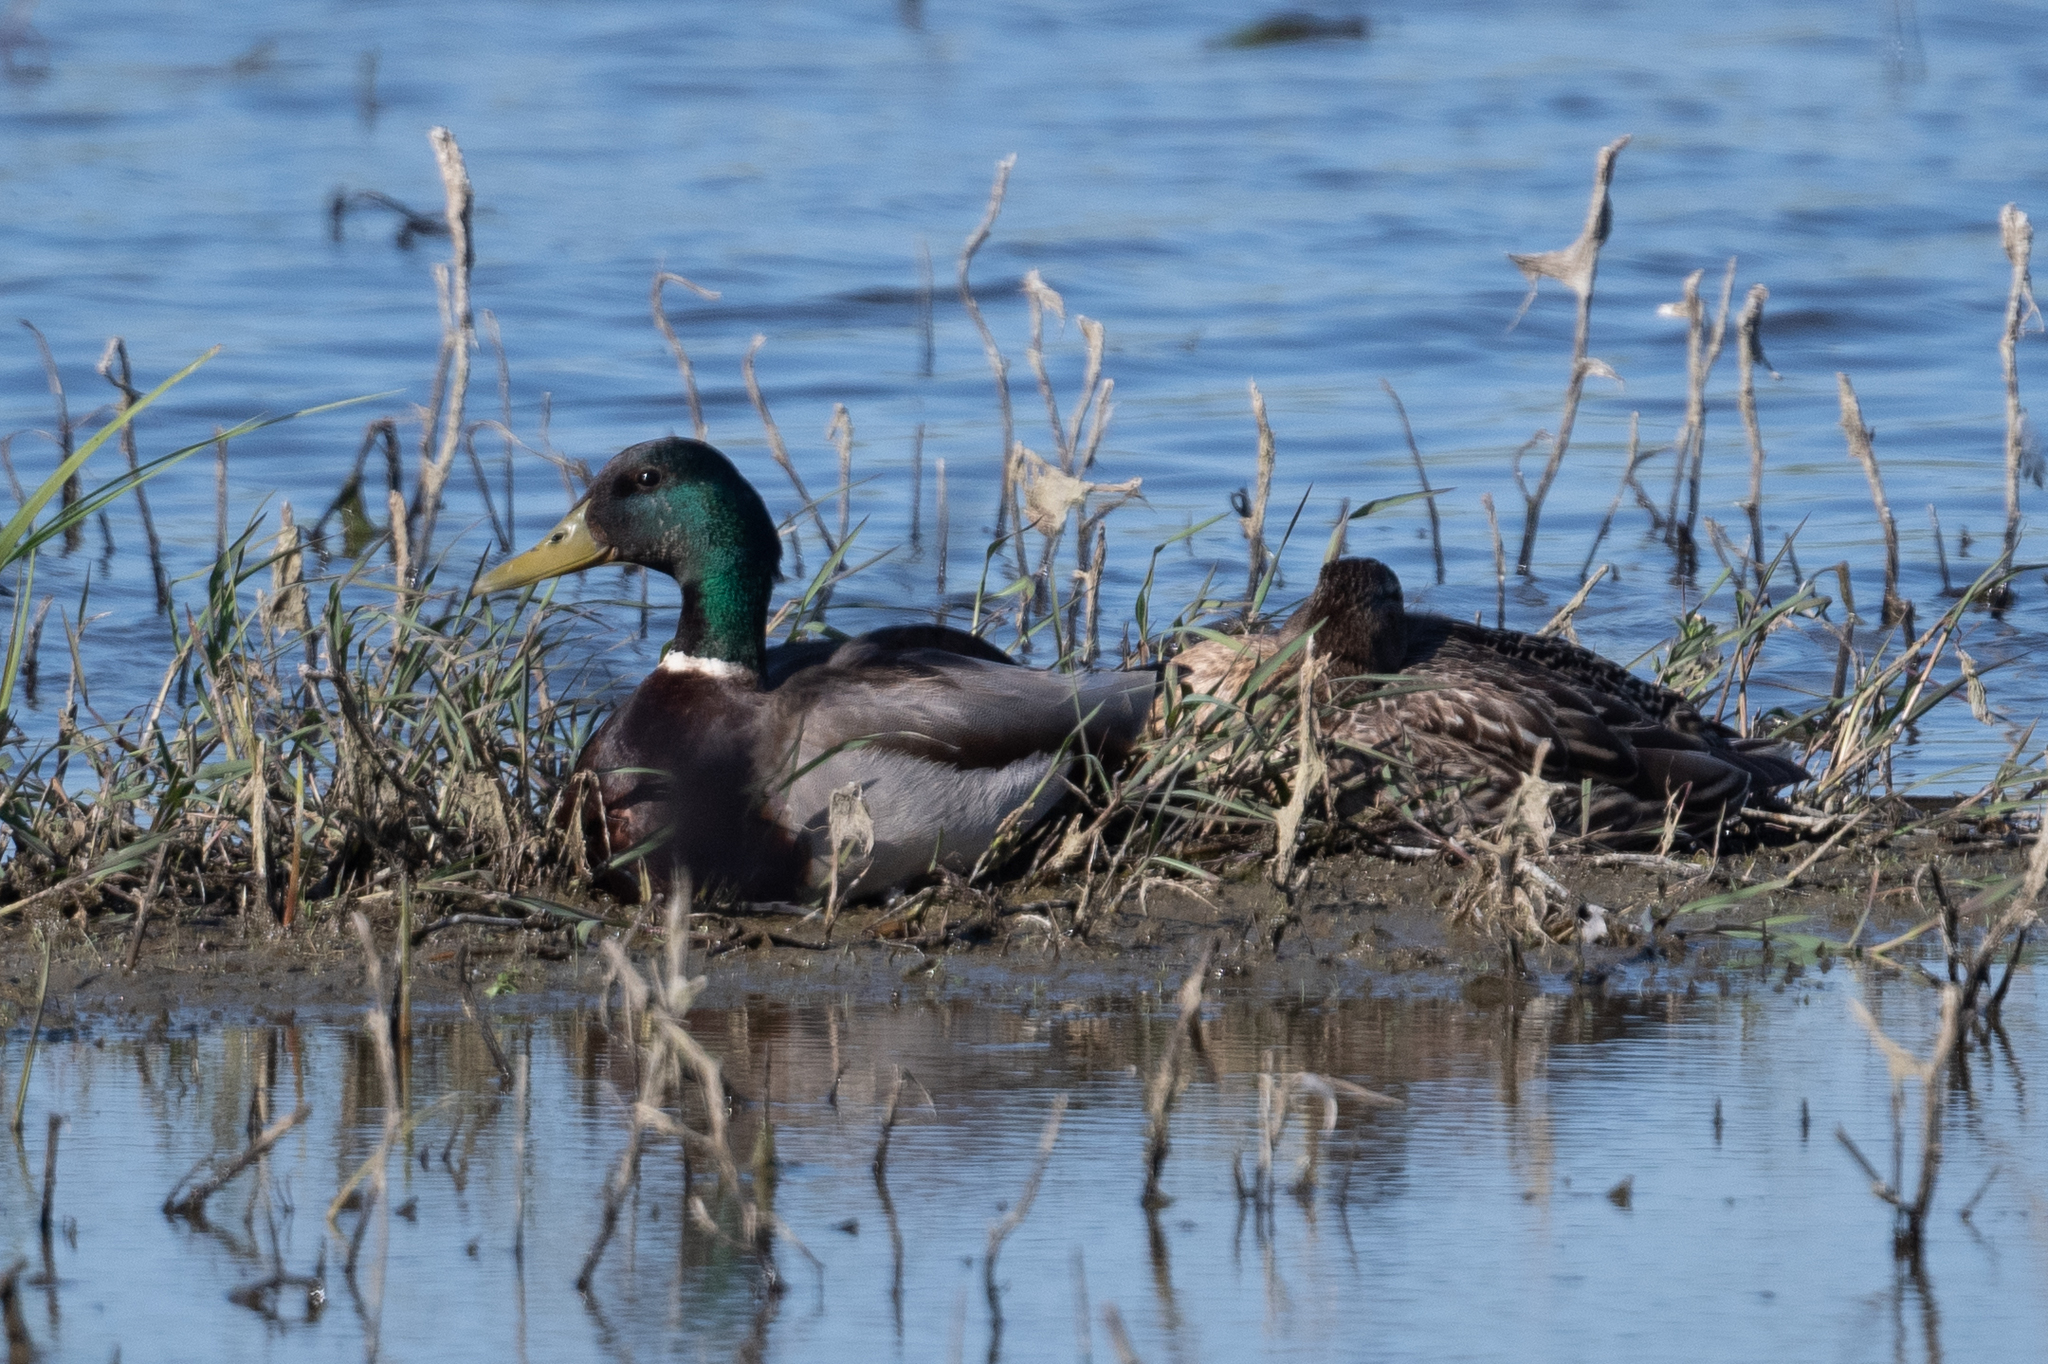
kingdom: Animalia
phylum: Chordata
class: Aves
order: Anseriformes
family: Anatidae
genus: Anas
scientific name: Anas platyrhynchos
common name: Mallard
